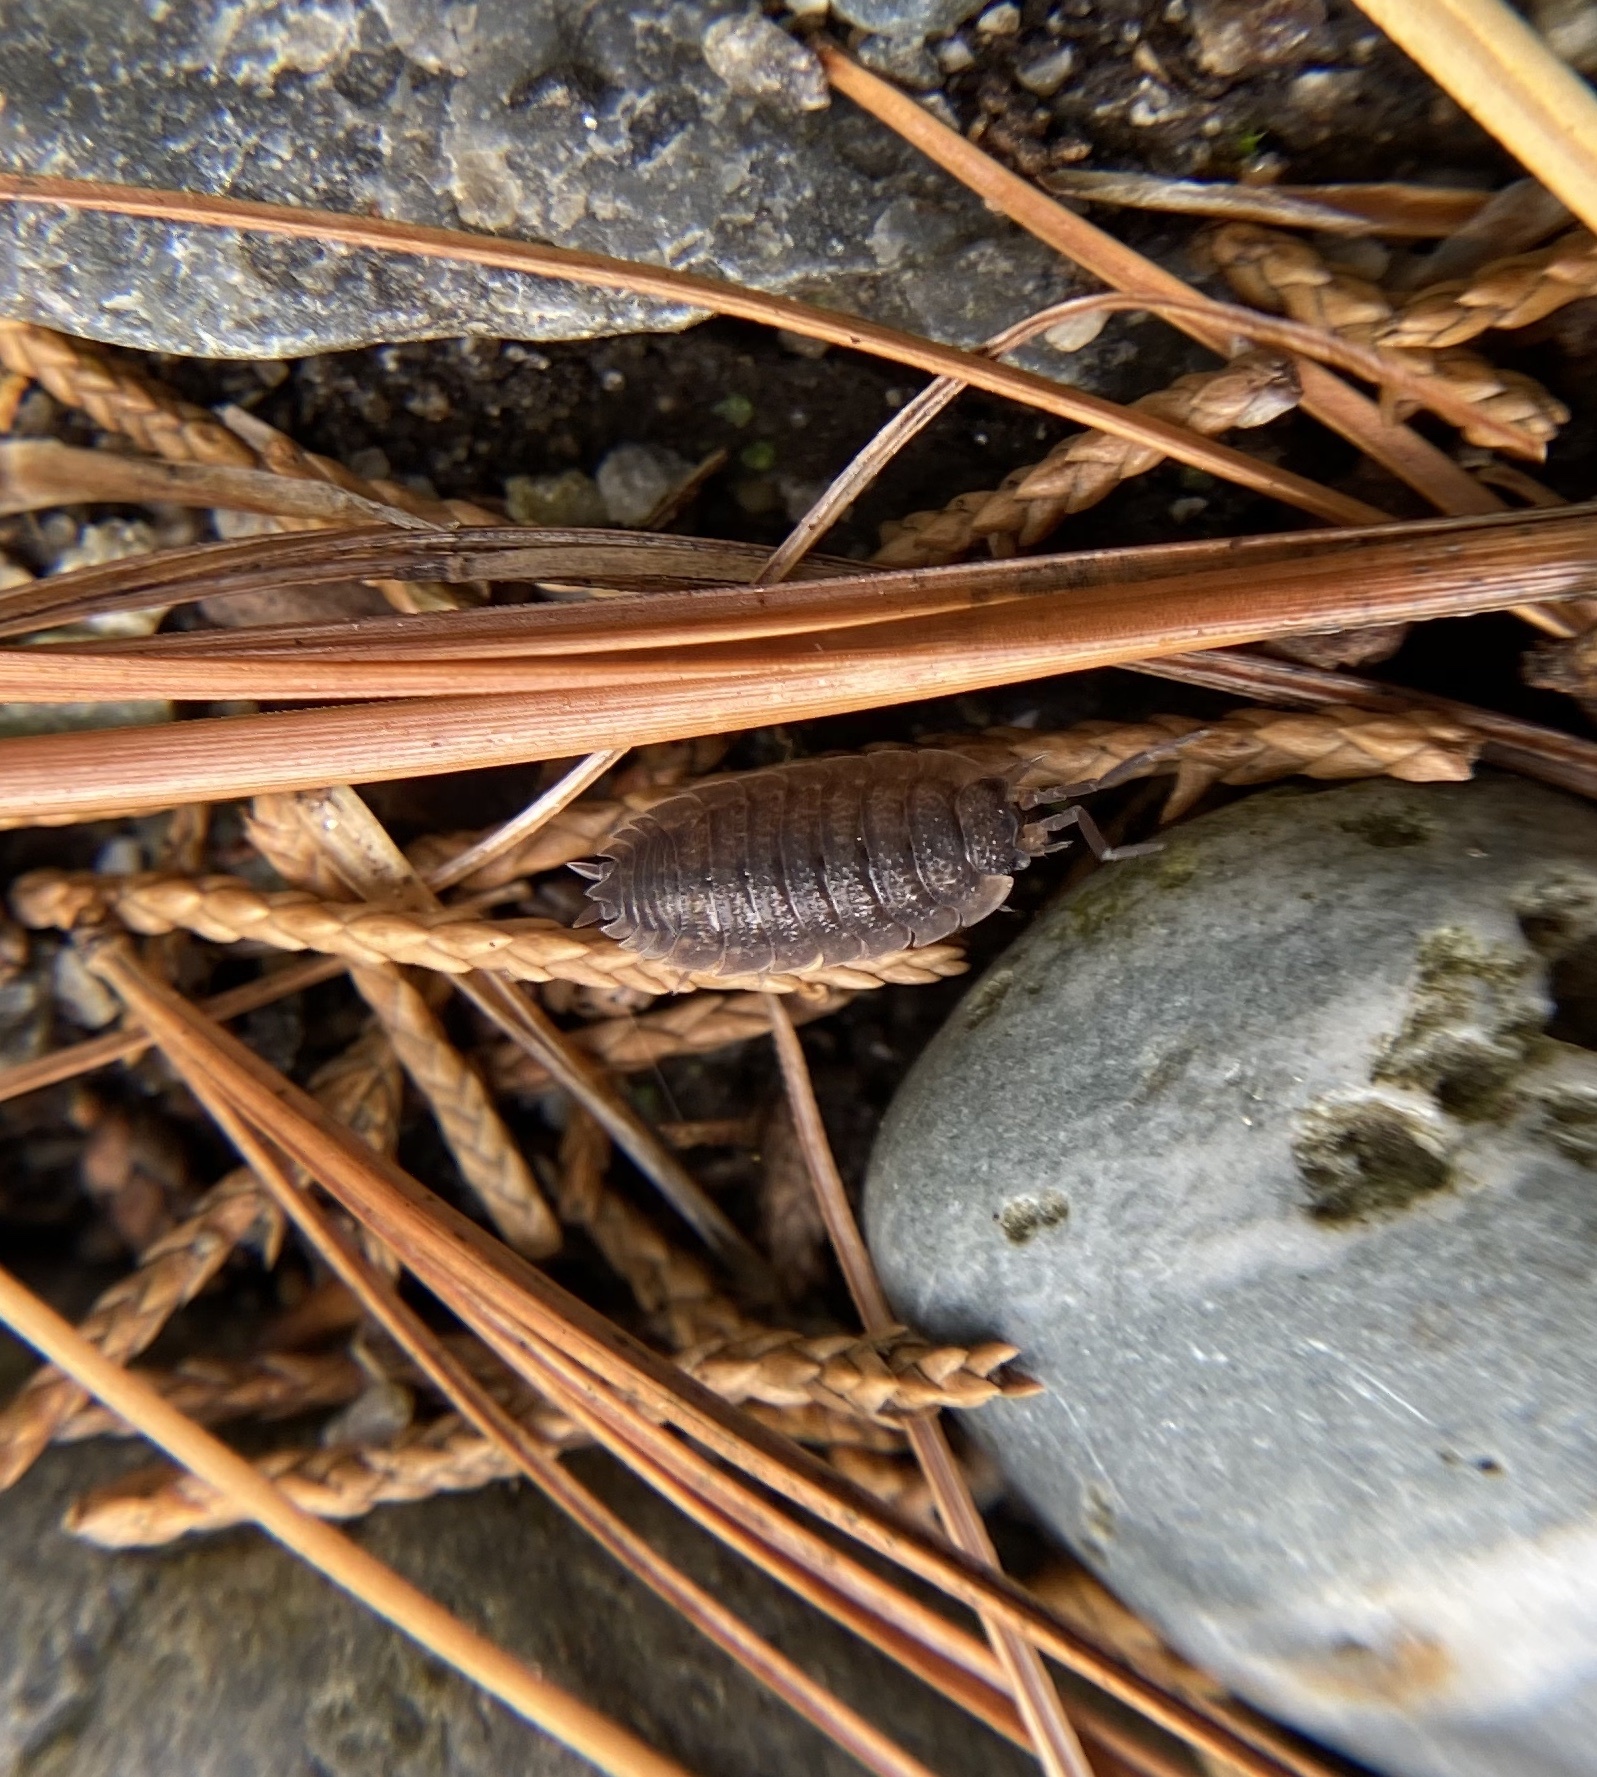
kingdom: Animalia
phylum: Arthropoda
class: Malacostraca
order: Isopoda
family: Porcellionidae
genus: Porcellio
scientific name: Porcellio scaber
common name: Common rough woodlouse
